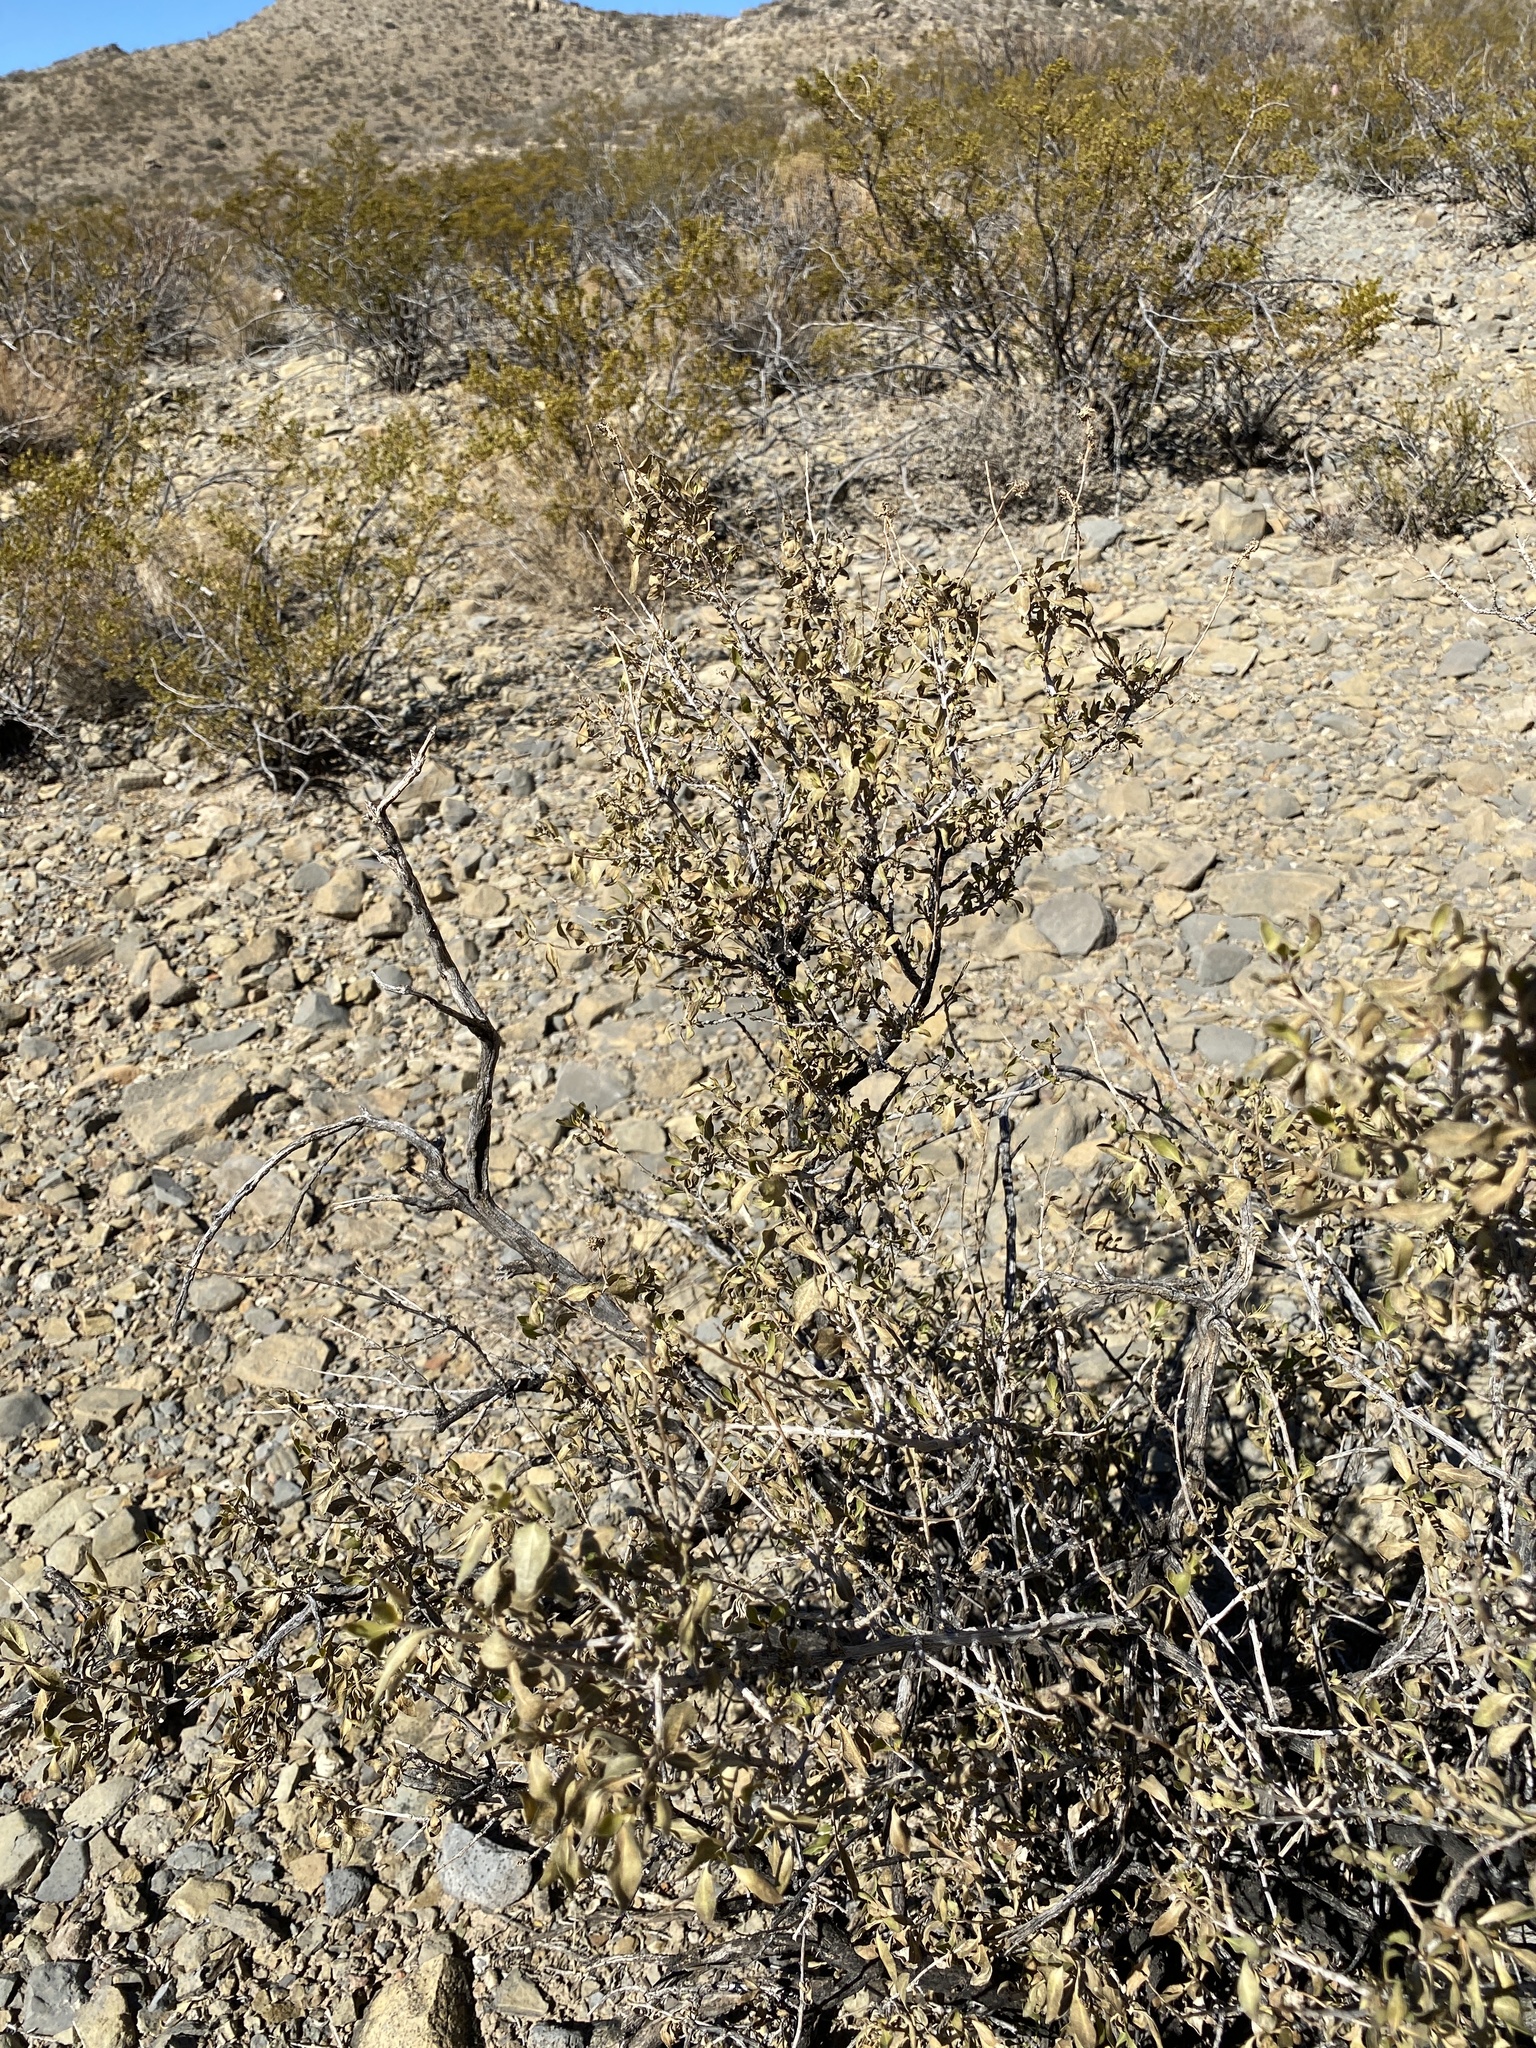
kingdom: Plantae
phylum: Tracheophyta
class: Magnoliopsida
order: Asterales
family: Asteraceae
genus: Flourensia
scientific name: Flourensia cernua
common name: Varnishbush
